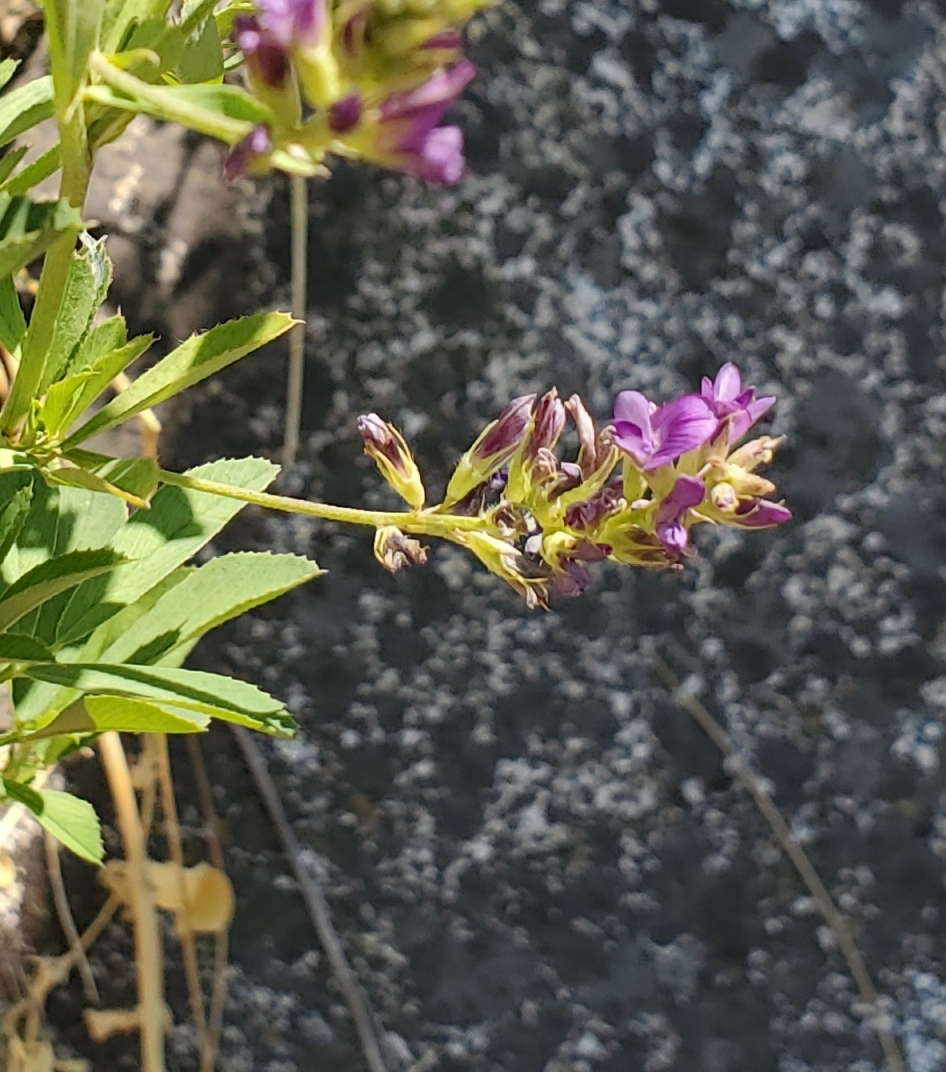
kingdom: Plantae
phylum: Tracheophyta
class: Magnoliopsida
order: Fabales
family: Fabaceae
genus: Medicago
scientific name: Medicago sativa
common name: Alfalfa
